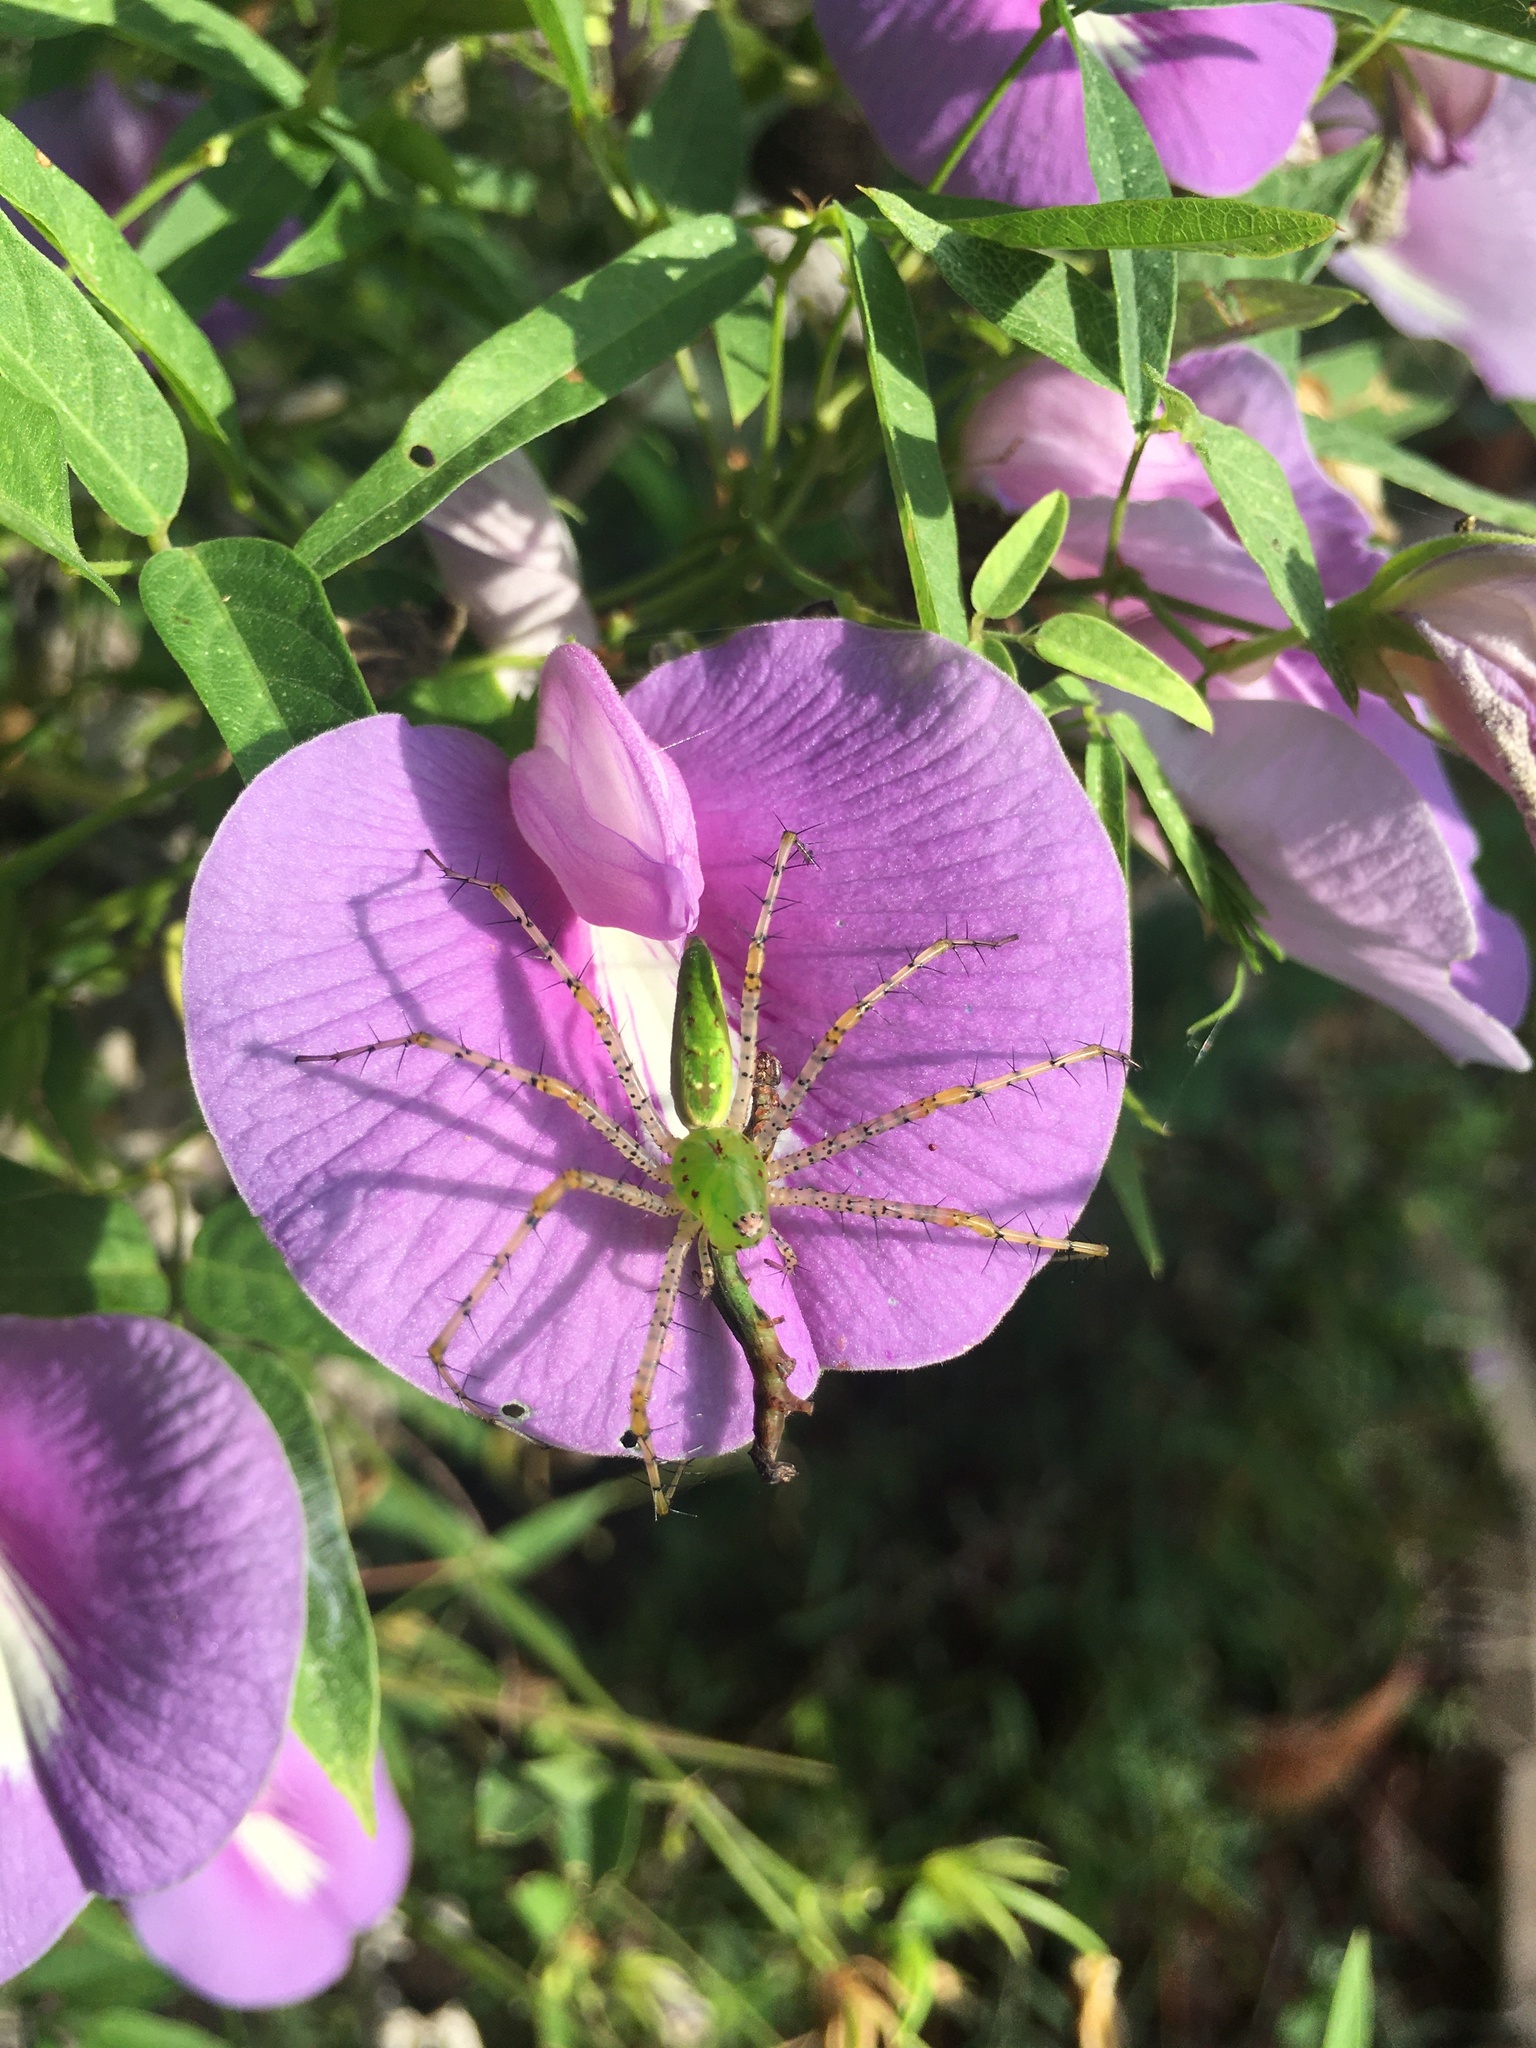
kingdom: Animalia
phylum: Arthropoda
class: Arachnida
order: Araneae
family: Oxyopidae
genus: Peucetia
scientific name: Peucetia viridans
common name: Lynx spiders
